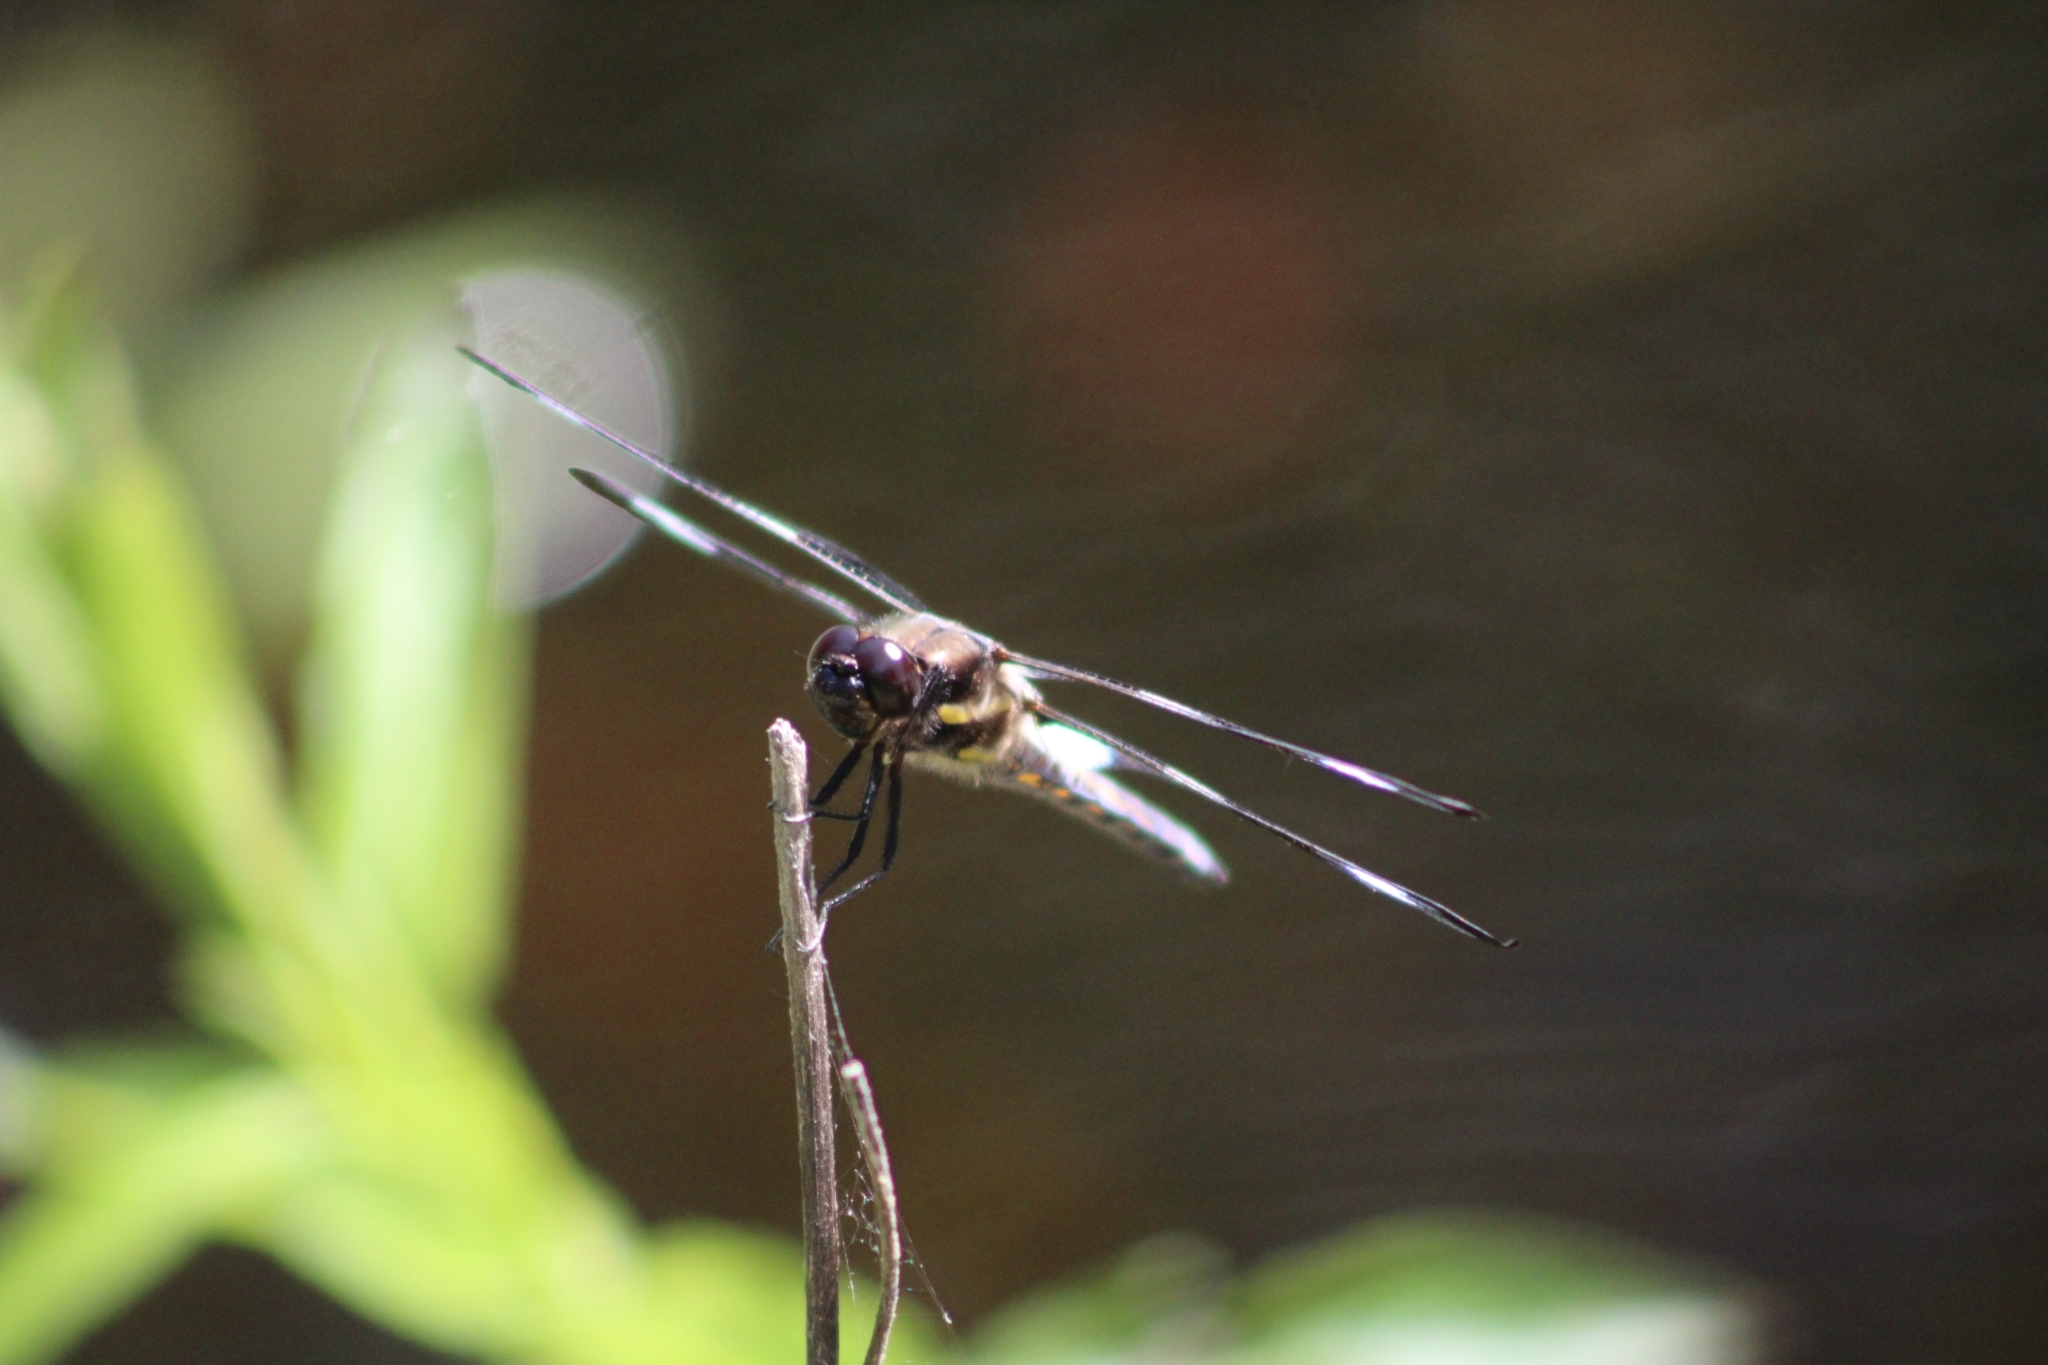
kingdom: Animalia
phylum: Arthropoda
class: Insecta
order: Odonata
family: Libellulidae
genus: Libellula
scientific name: Libellula pulchella
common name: Twelve-spotted skimmer
